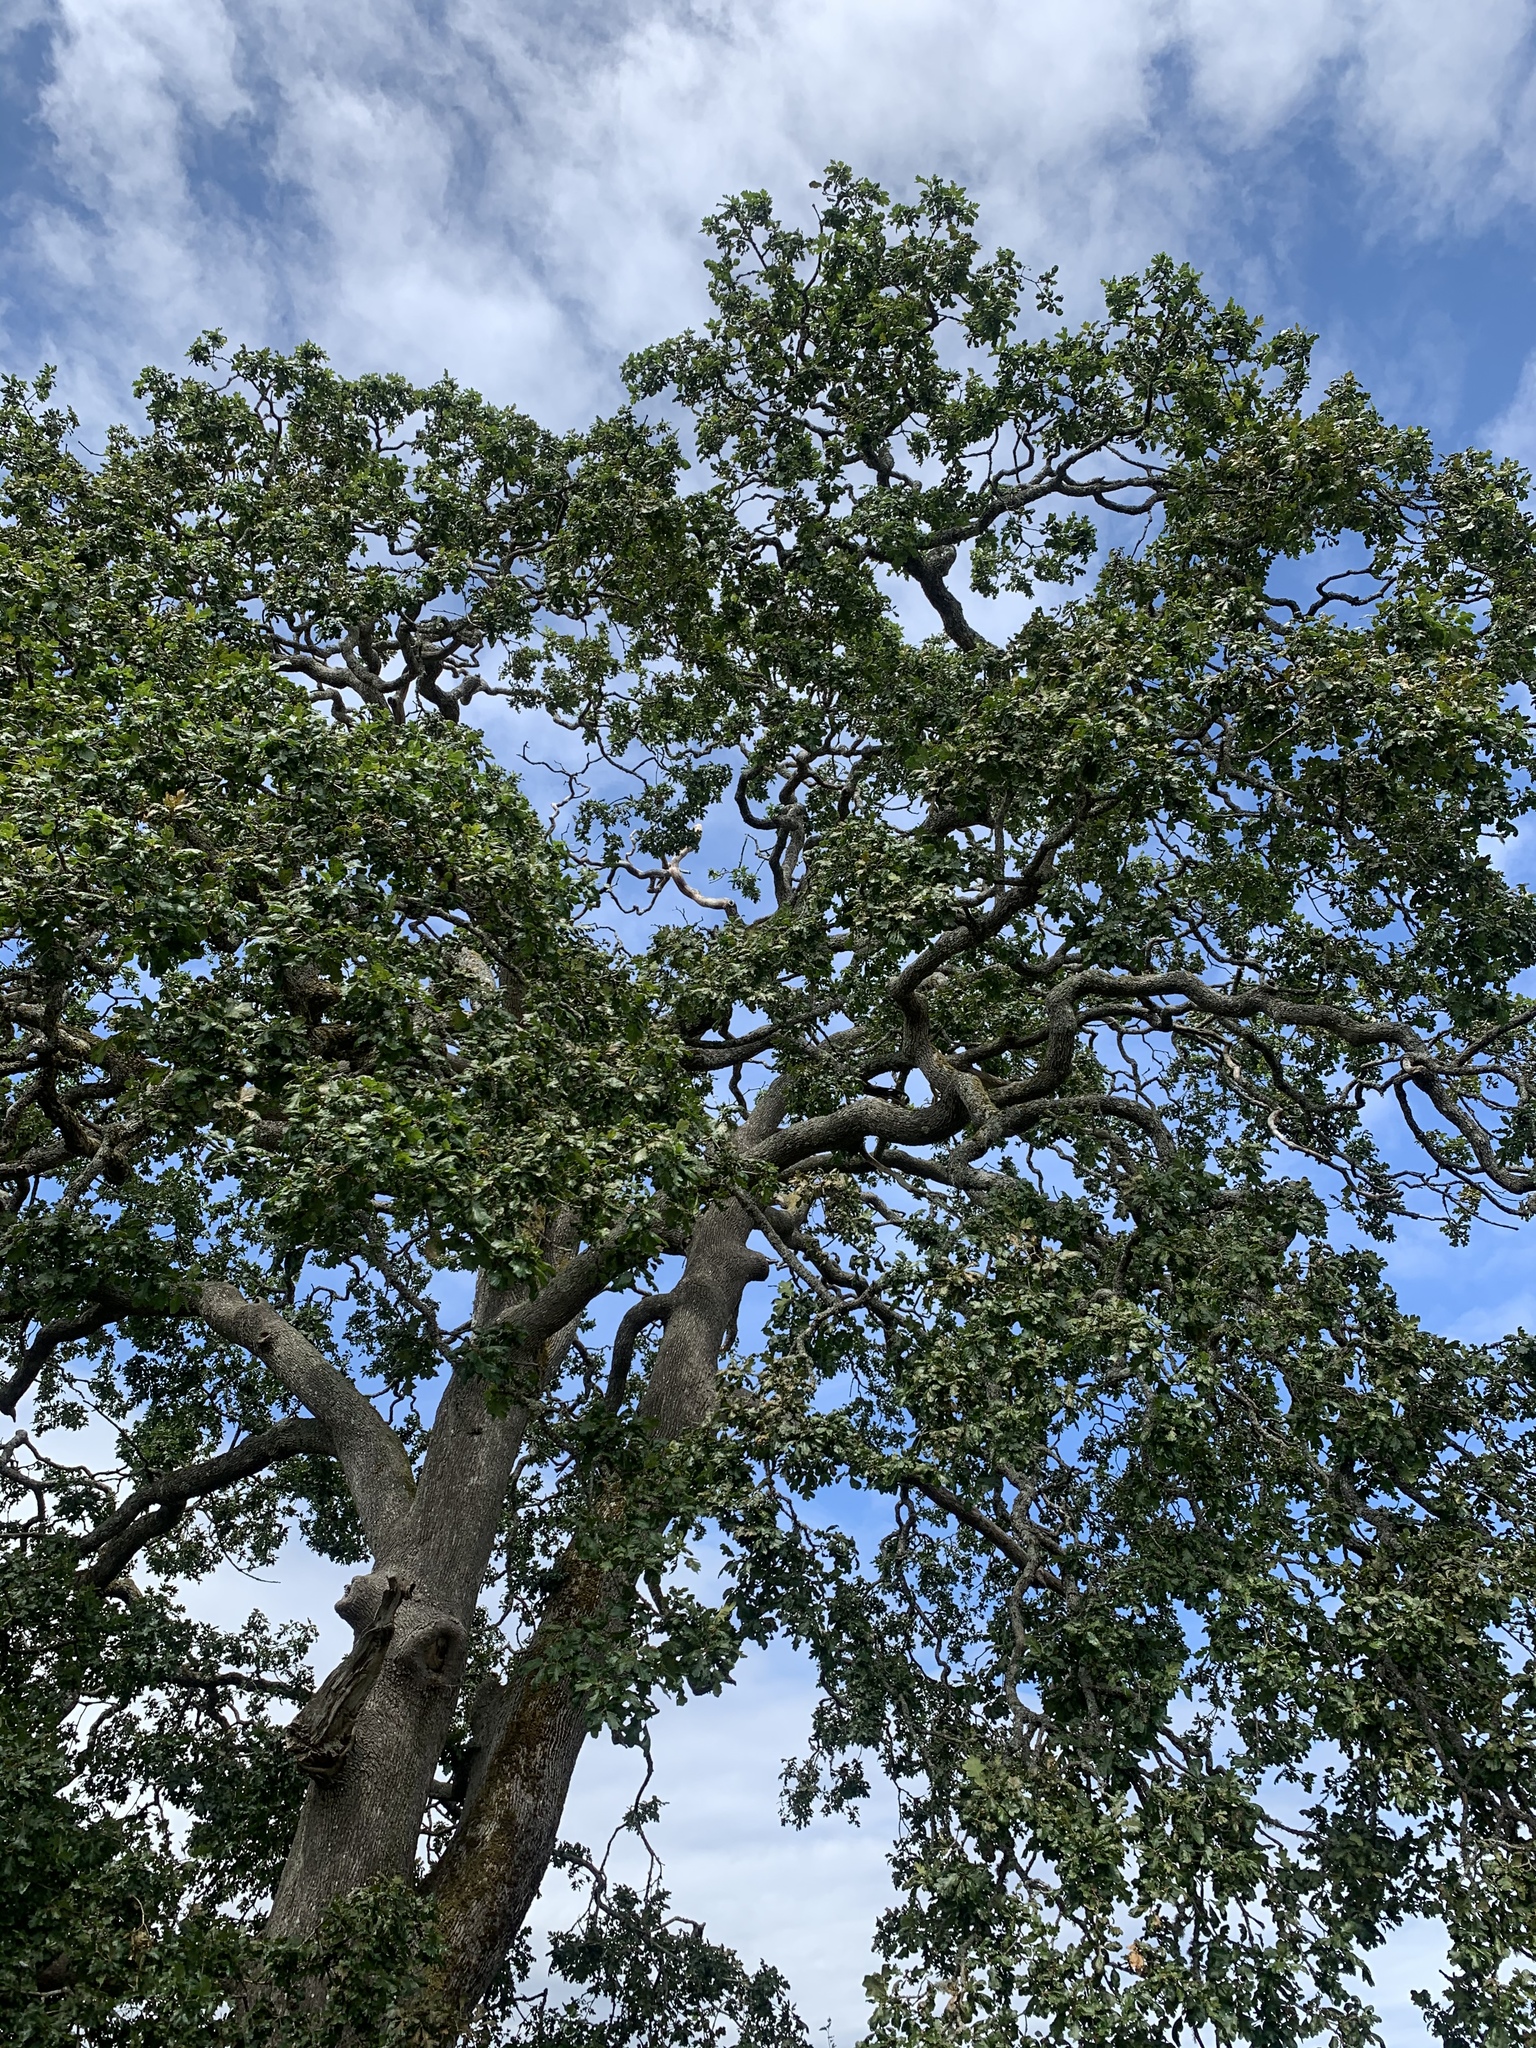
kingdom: Plantae
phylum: Tracheophyta
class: Magnoliopsida
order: Fagales
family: Fagaceae
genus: Quercus
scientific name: Quercus garryana
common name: Garry oak
